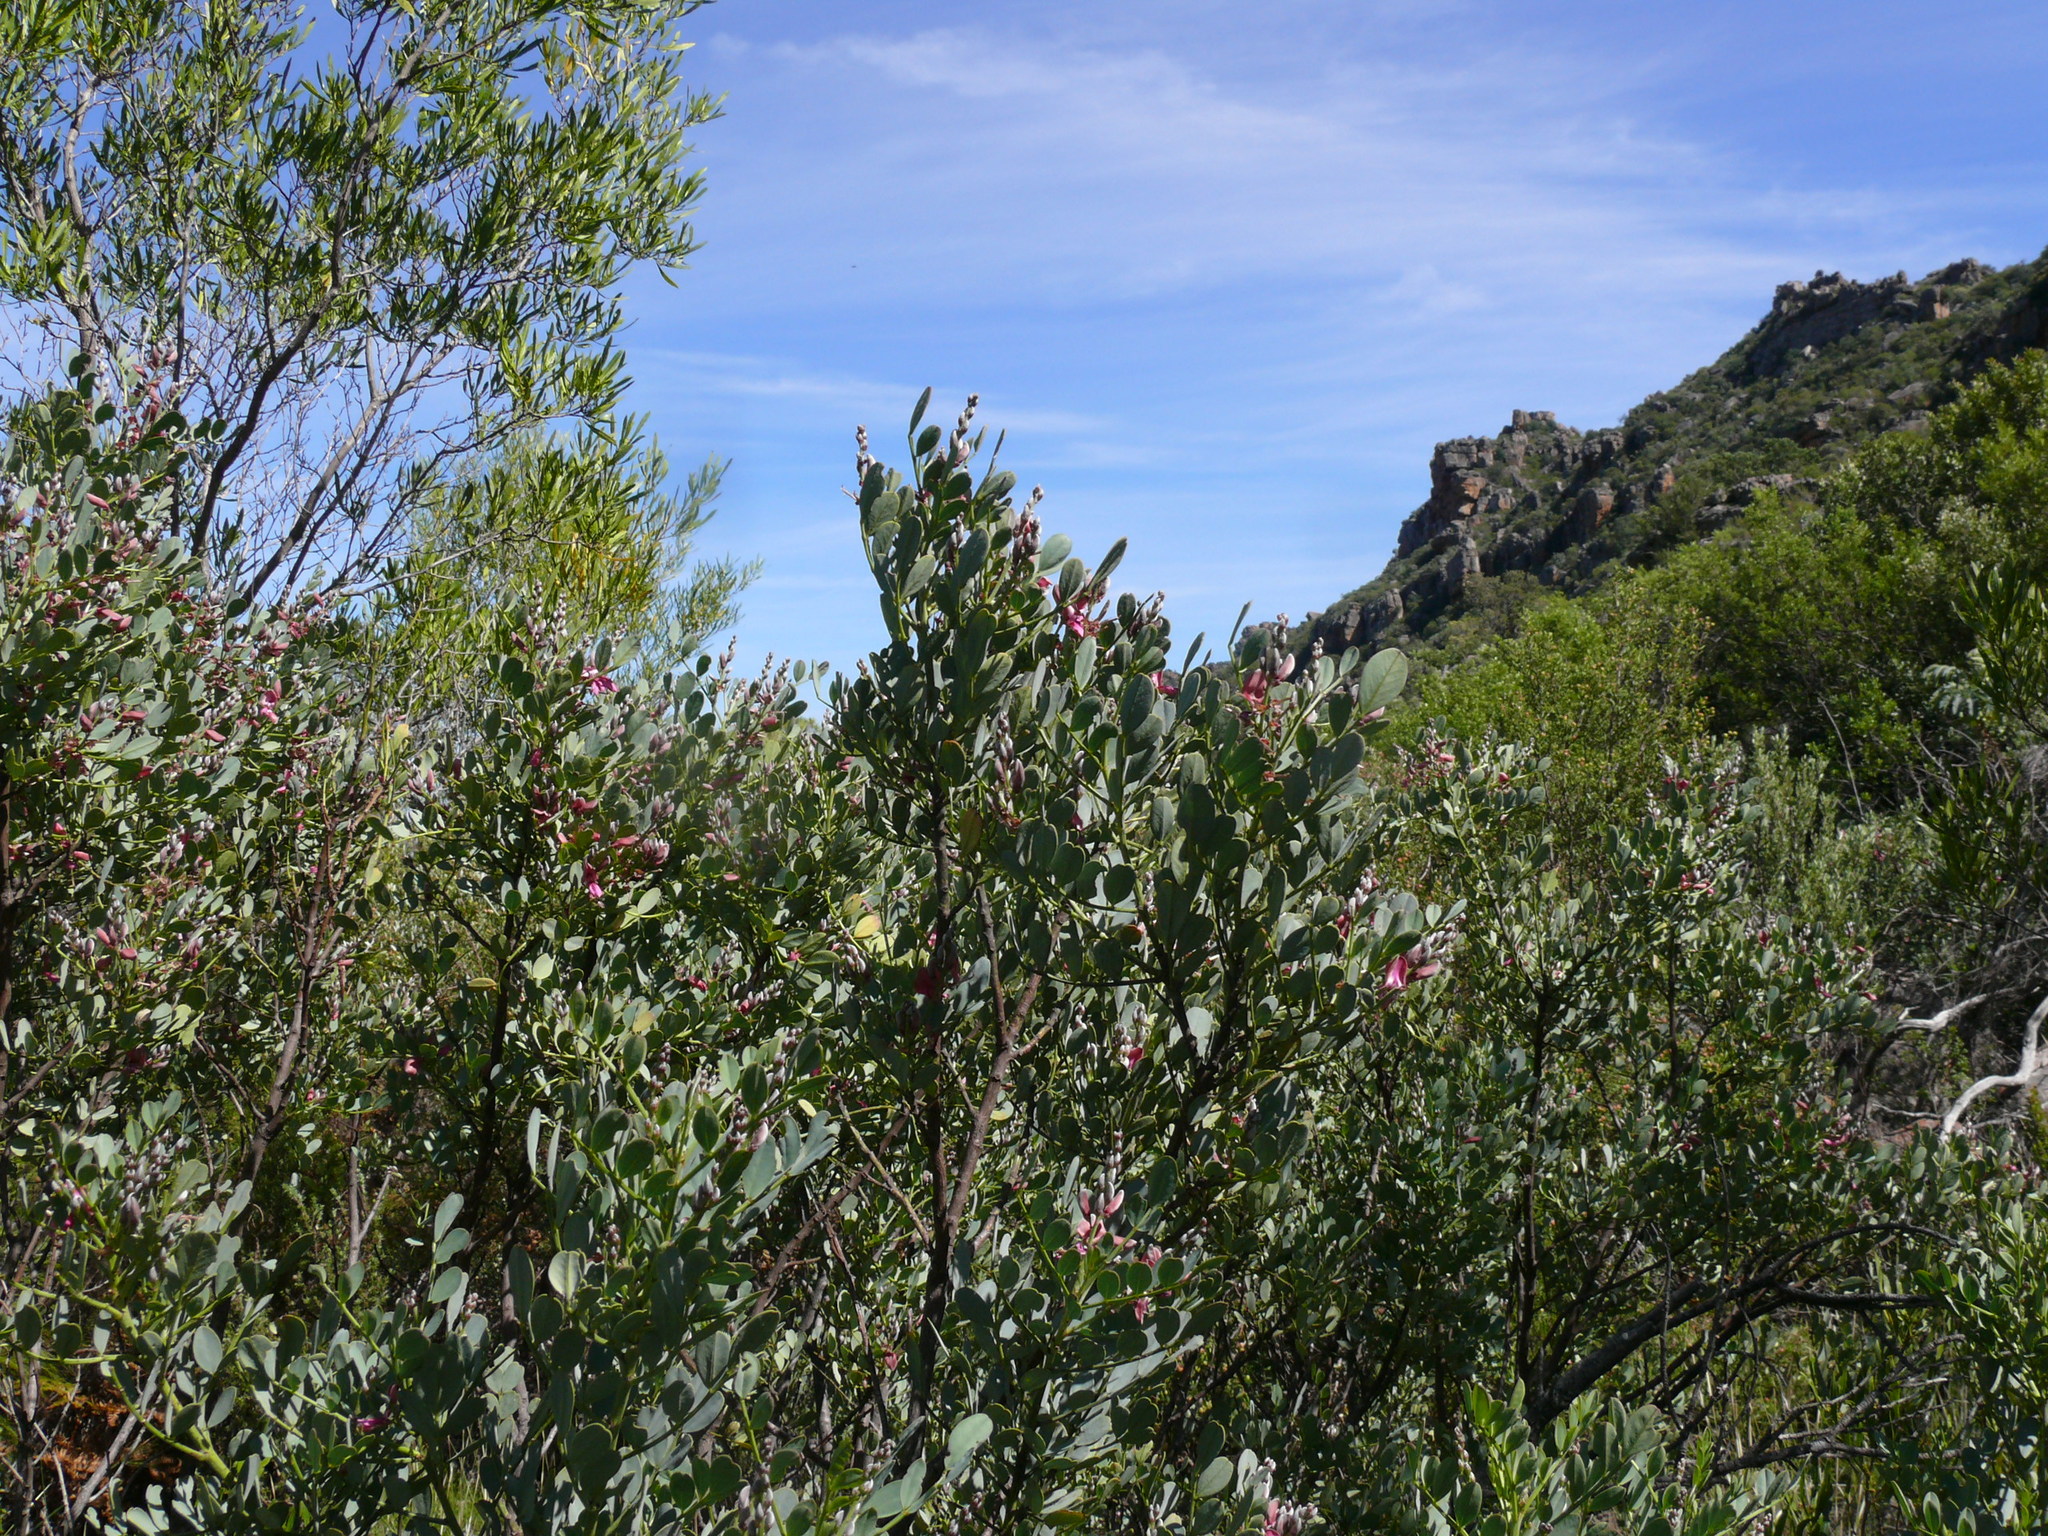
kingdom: Plantae
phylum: Tracheophyta
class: Magnoliopsida
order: Fabales
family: Fabaceae
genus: Indigofera
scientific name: Indigofera frutescens
